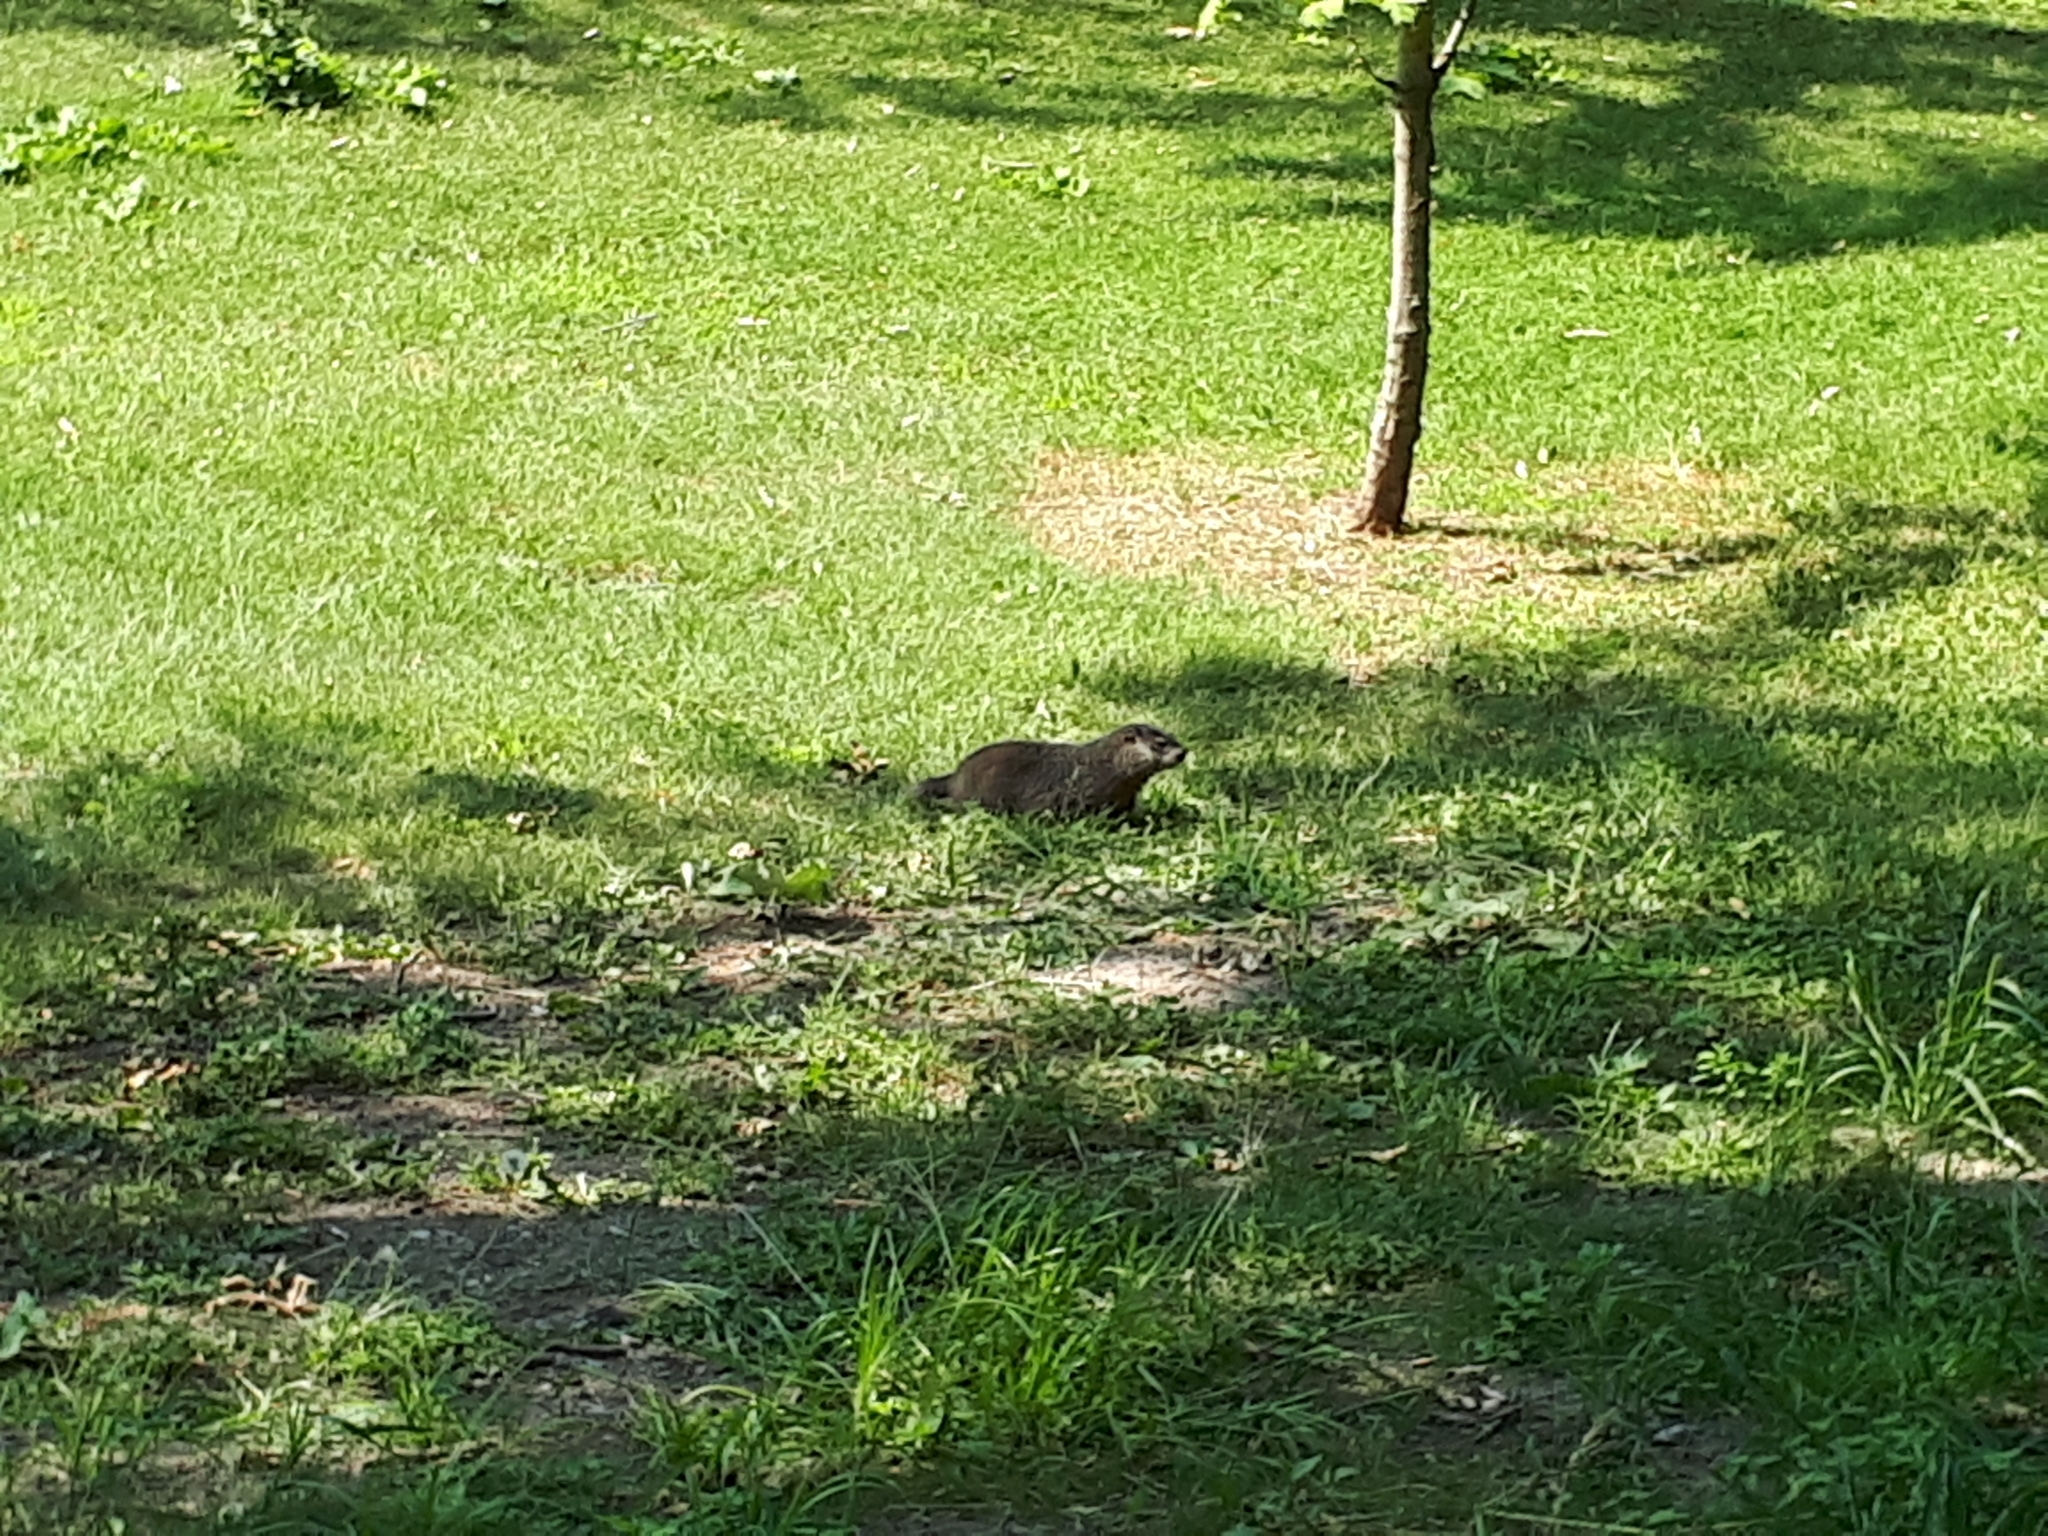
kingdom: Animalia
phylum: Chordata
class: Mammalia
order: Rodentia
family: Sciuridae
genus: Marmota
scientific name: Marmota monax
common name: Groundhog
